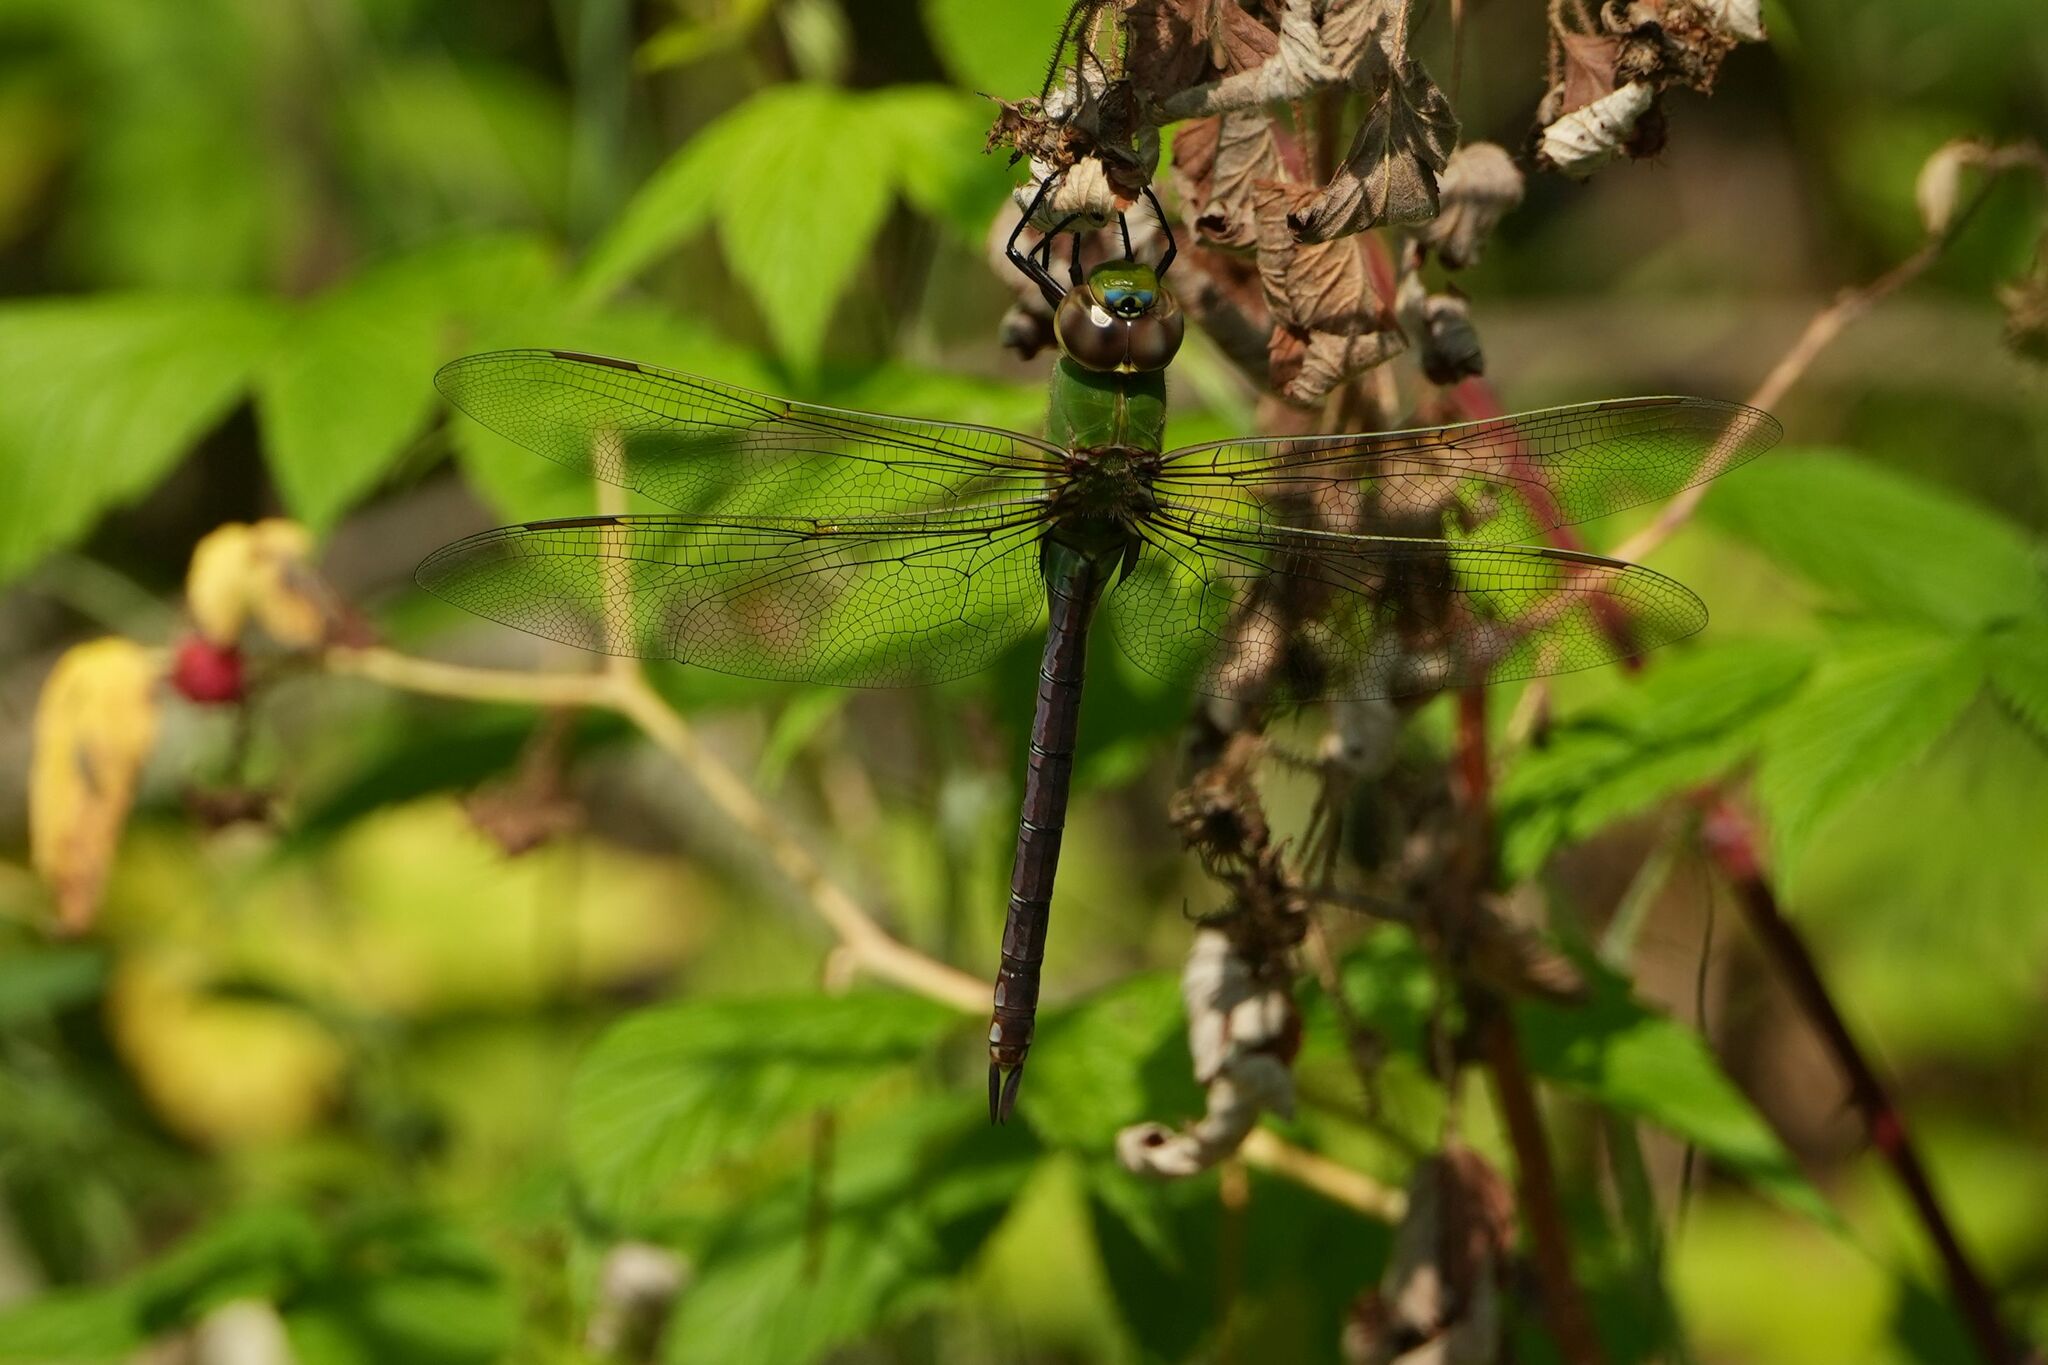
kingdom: Animalia
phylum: Arthropoda
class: Insecta
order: Odonata
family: Aeshnidae
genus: Anax
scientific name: Anax junius
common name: Common green darner
